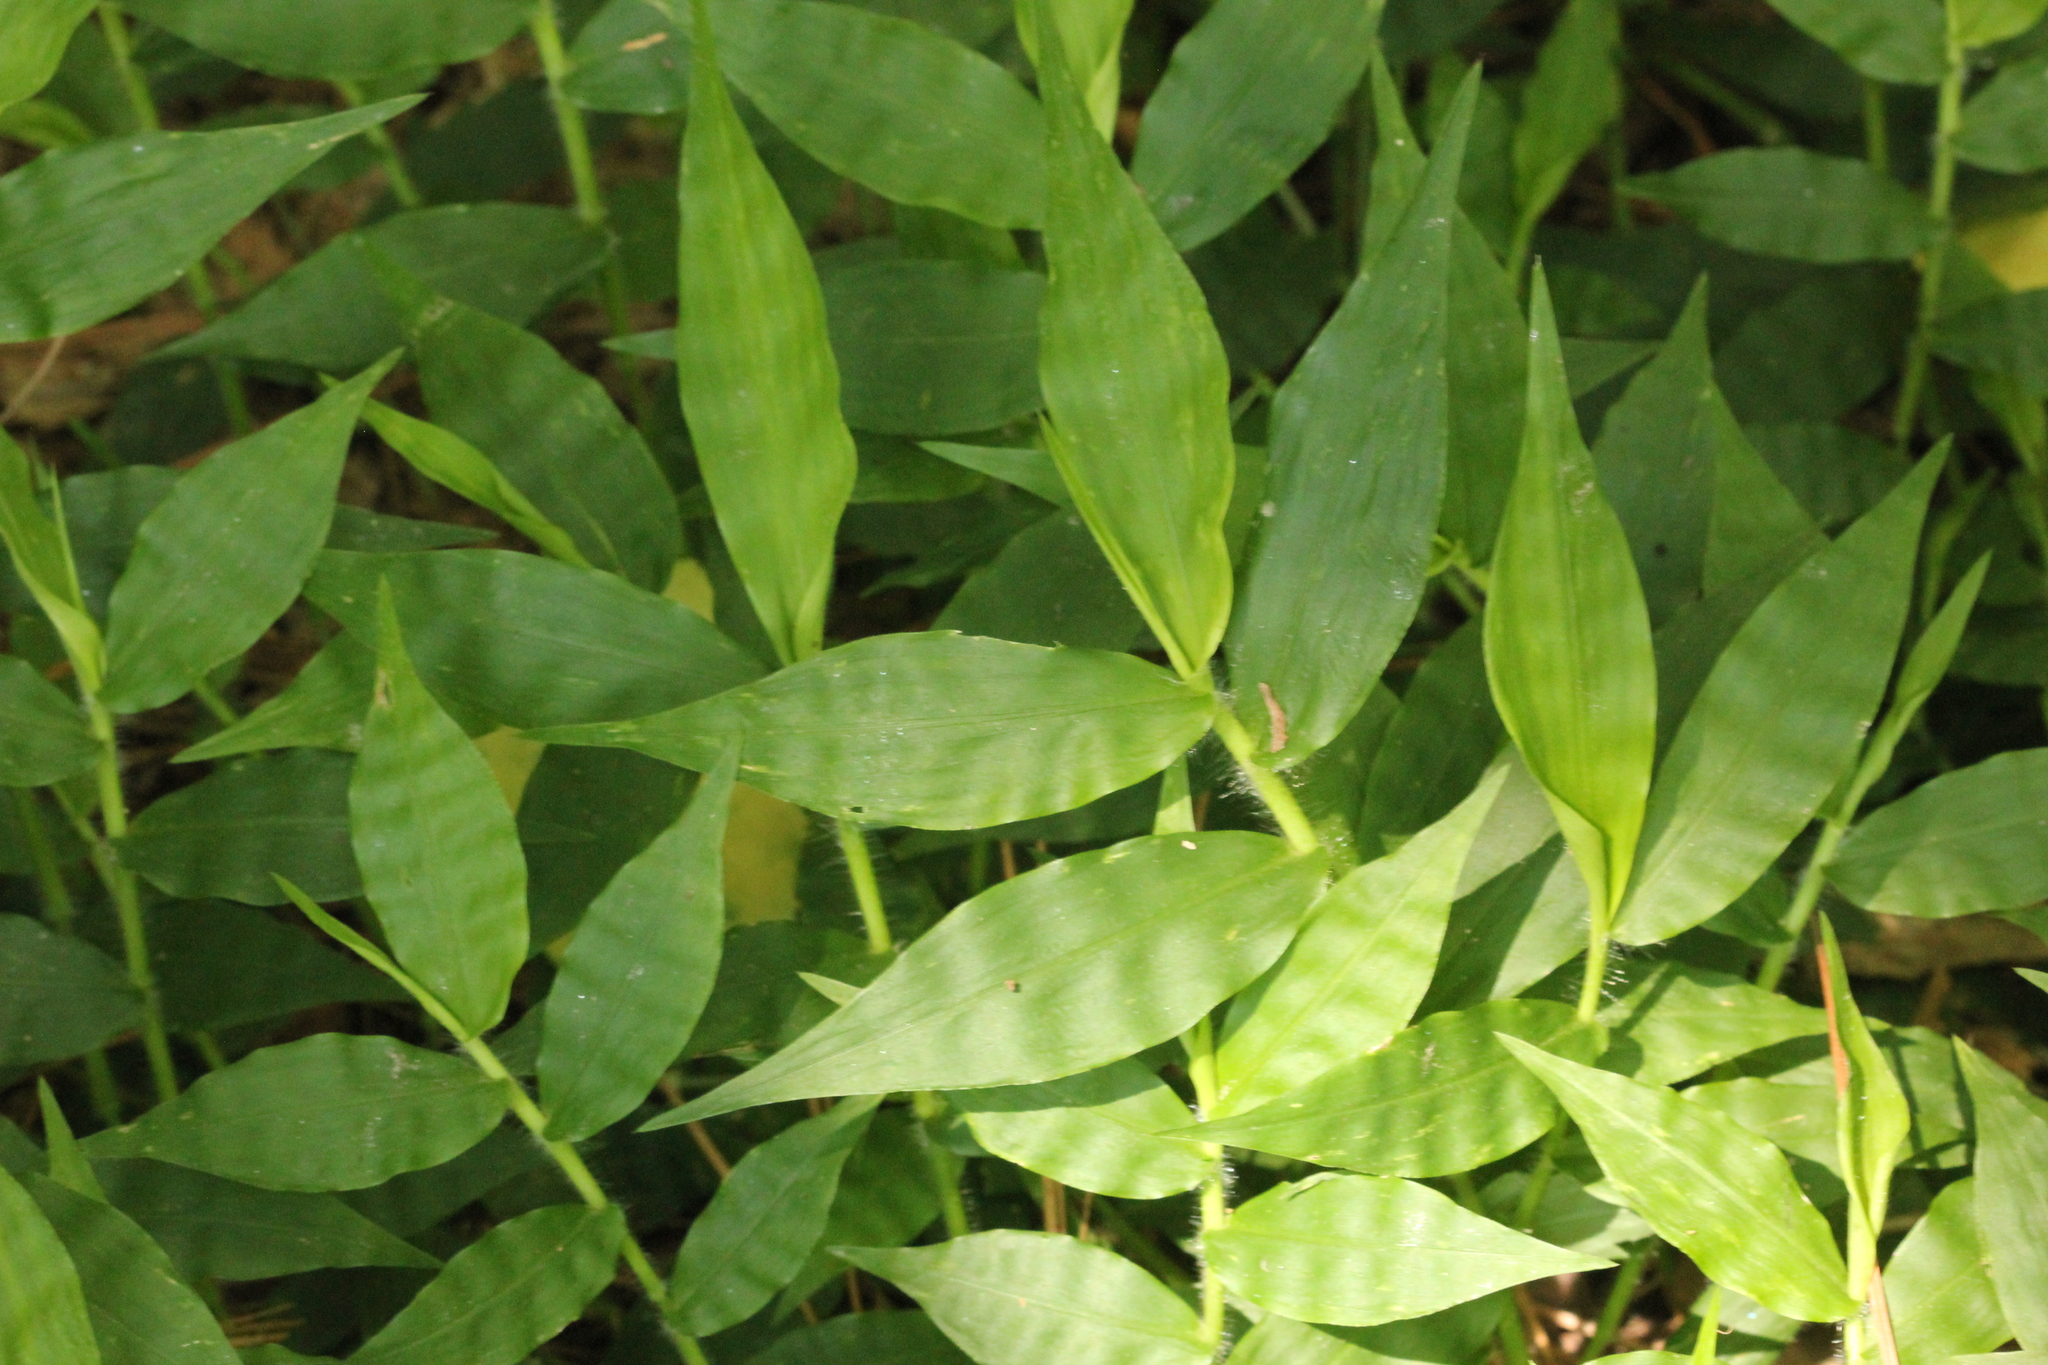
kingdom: Plantae
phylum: Tracheophyta
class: Liliopsida
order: Poales
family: Poaceae
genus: Oplismenus
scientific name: Oplismenus undulatifolius
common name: Wavyleaf basketgrass
